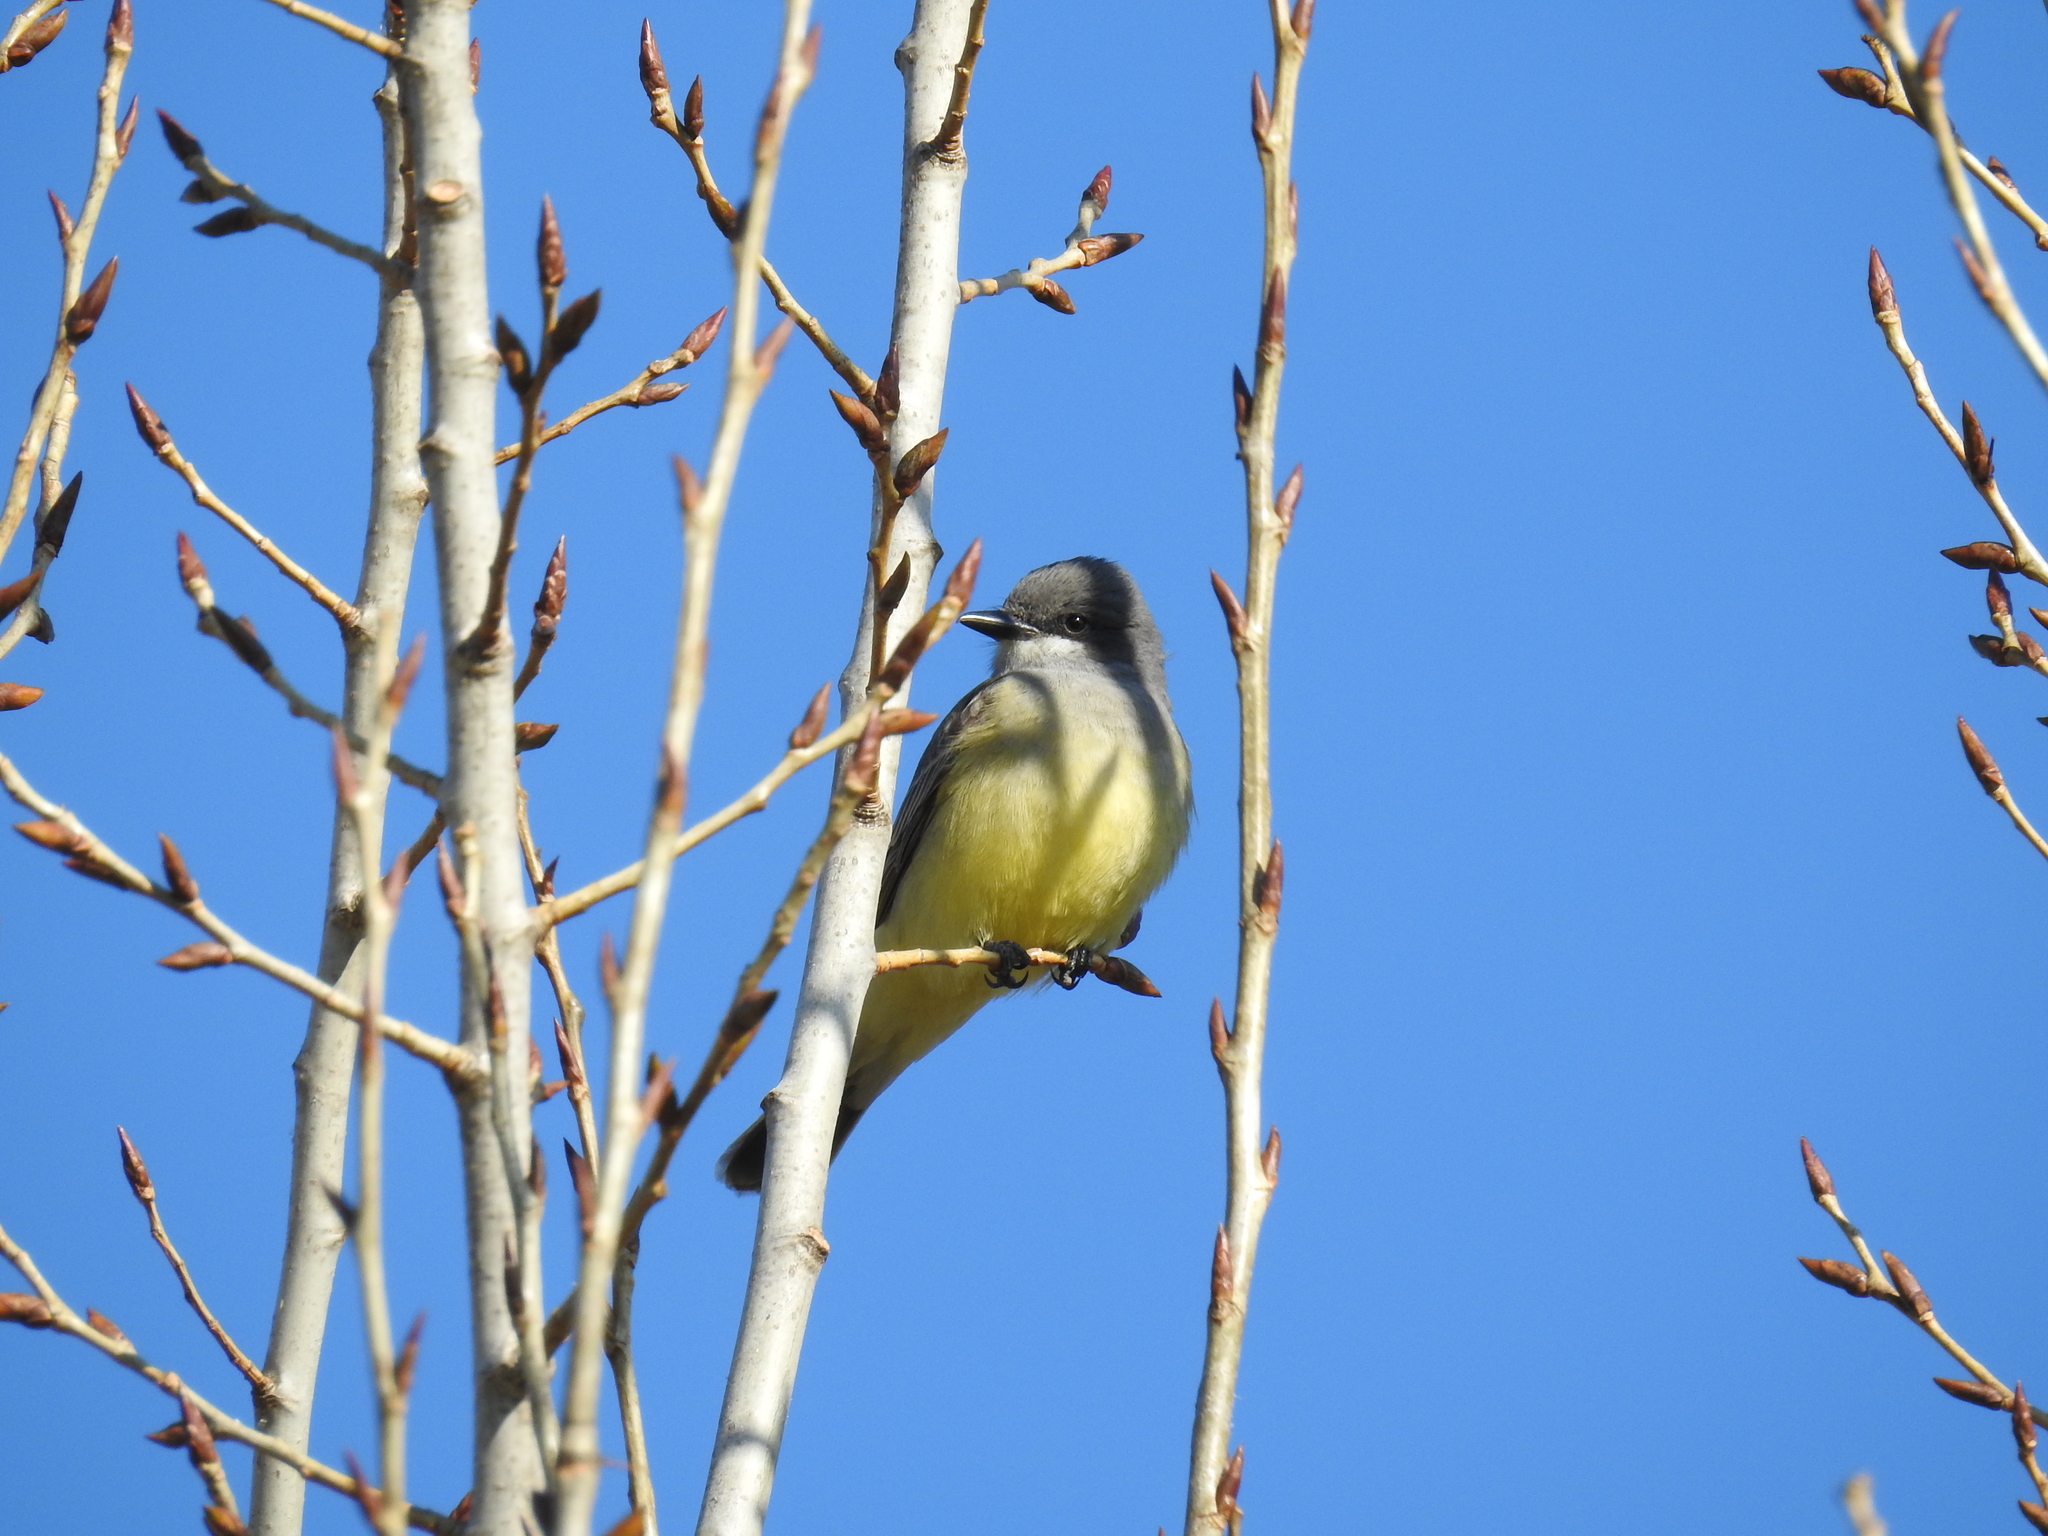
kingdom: Animalia
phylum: Chordata
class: Aves
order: Passeriformes
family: Tyrannidae
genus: Tyrannus
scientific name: Tyrannus vociferans
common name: Cassin's kingbird
